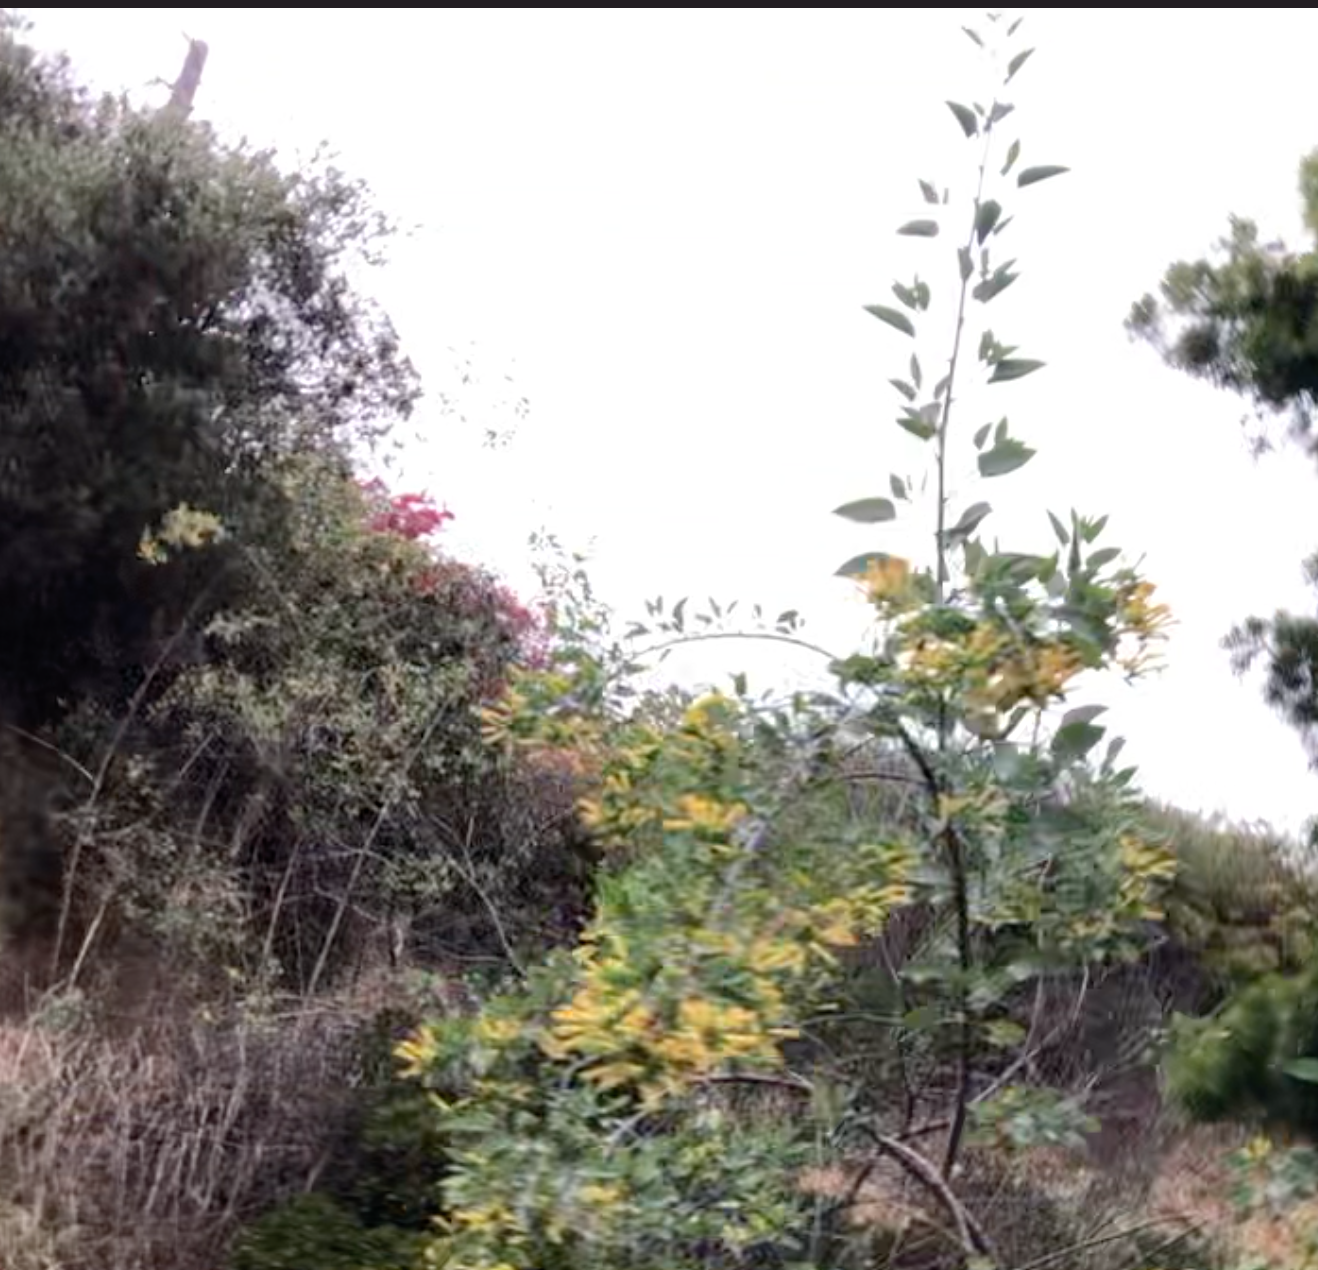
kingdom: Plantae
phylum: Tracheophyta
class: Magnoliopsida
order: Solanales
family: Solanaceae
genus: Nicotiana
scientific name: Nicotiana glauca
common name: Tree tobacco
